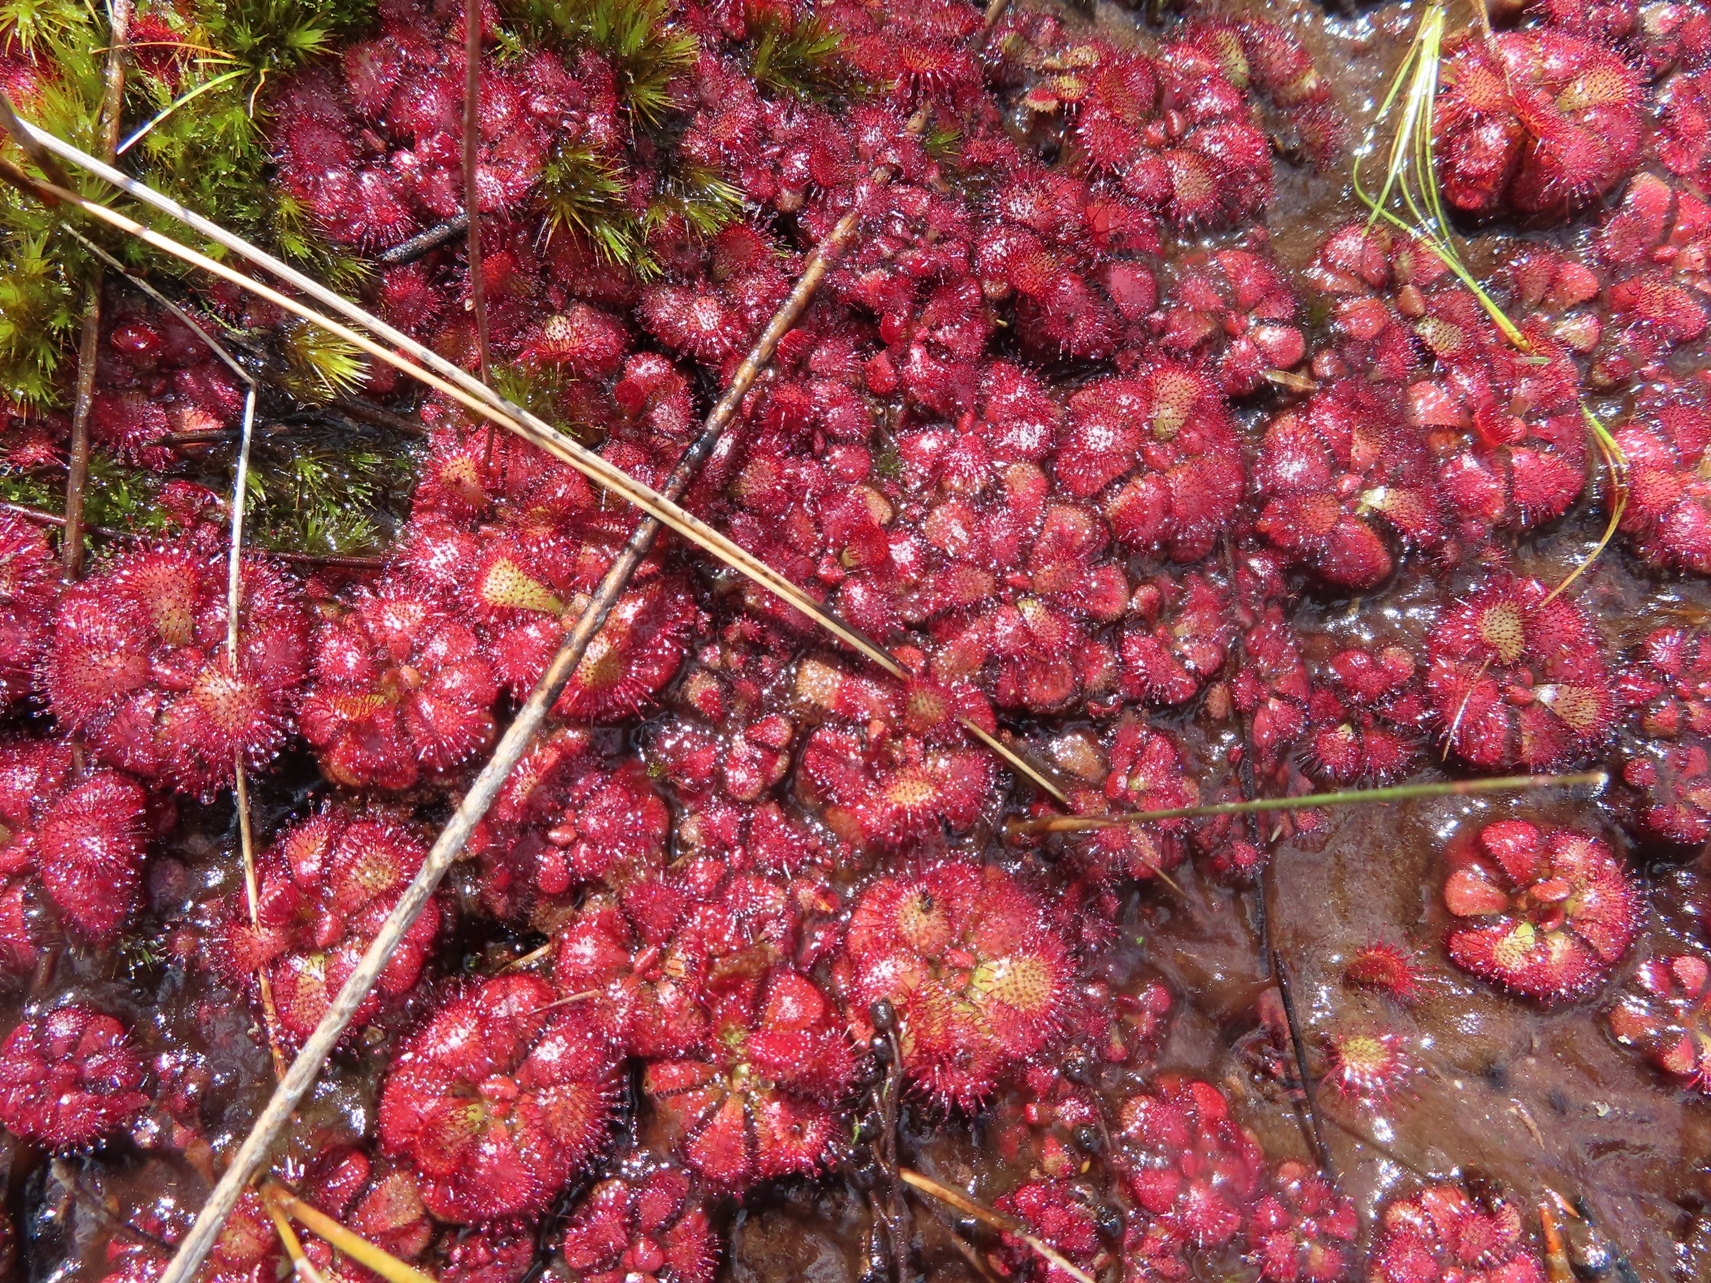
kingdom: Plantae
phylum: Tracheophyta
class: Magnoliopsida
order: Caryophyllales
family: Droseraceae
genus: Drosera
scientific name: Drosera cuneifolia
